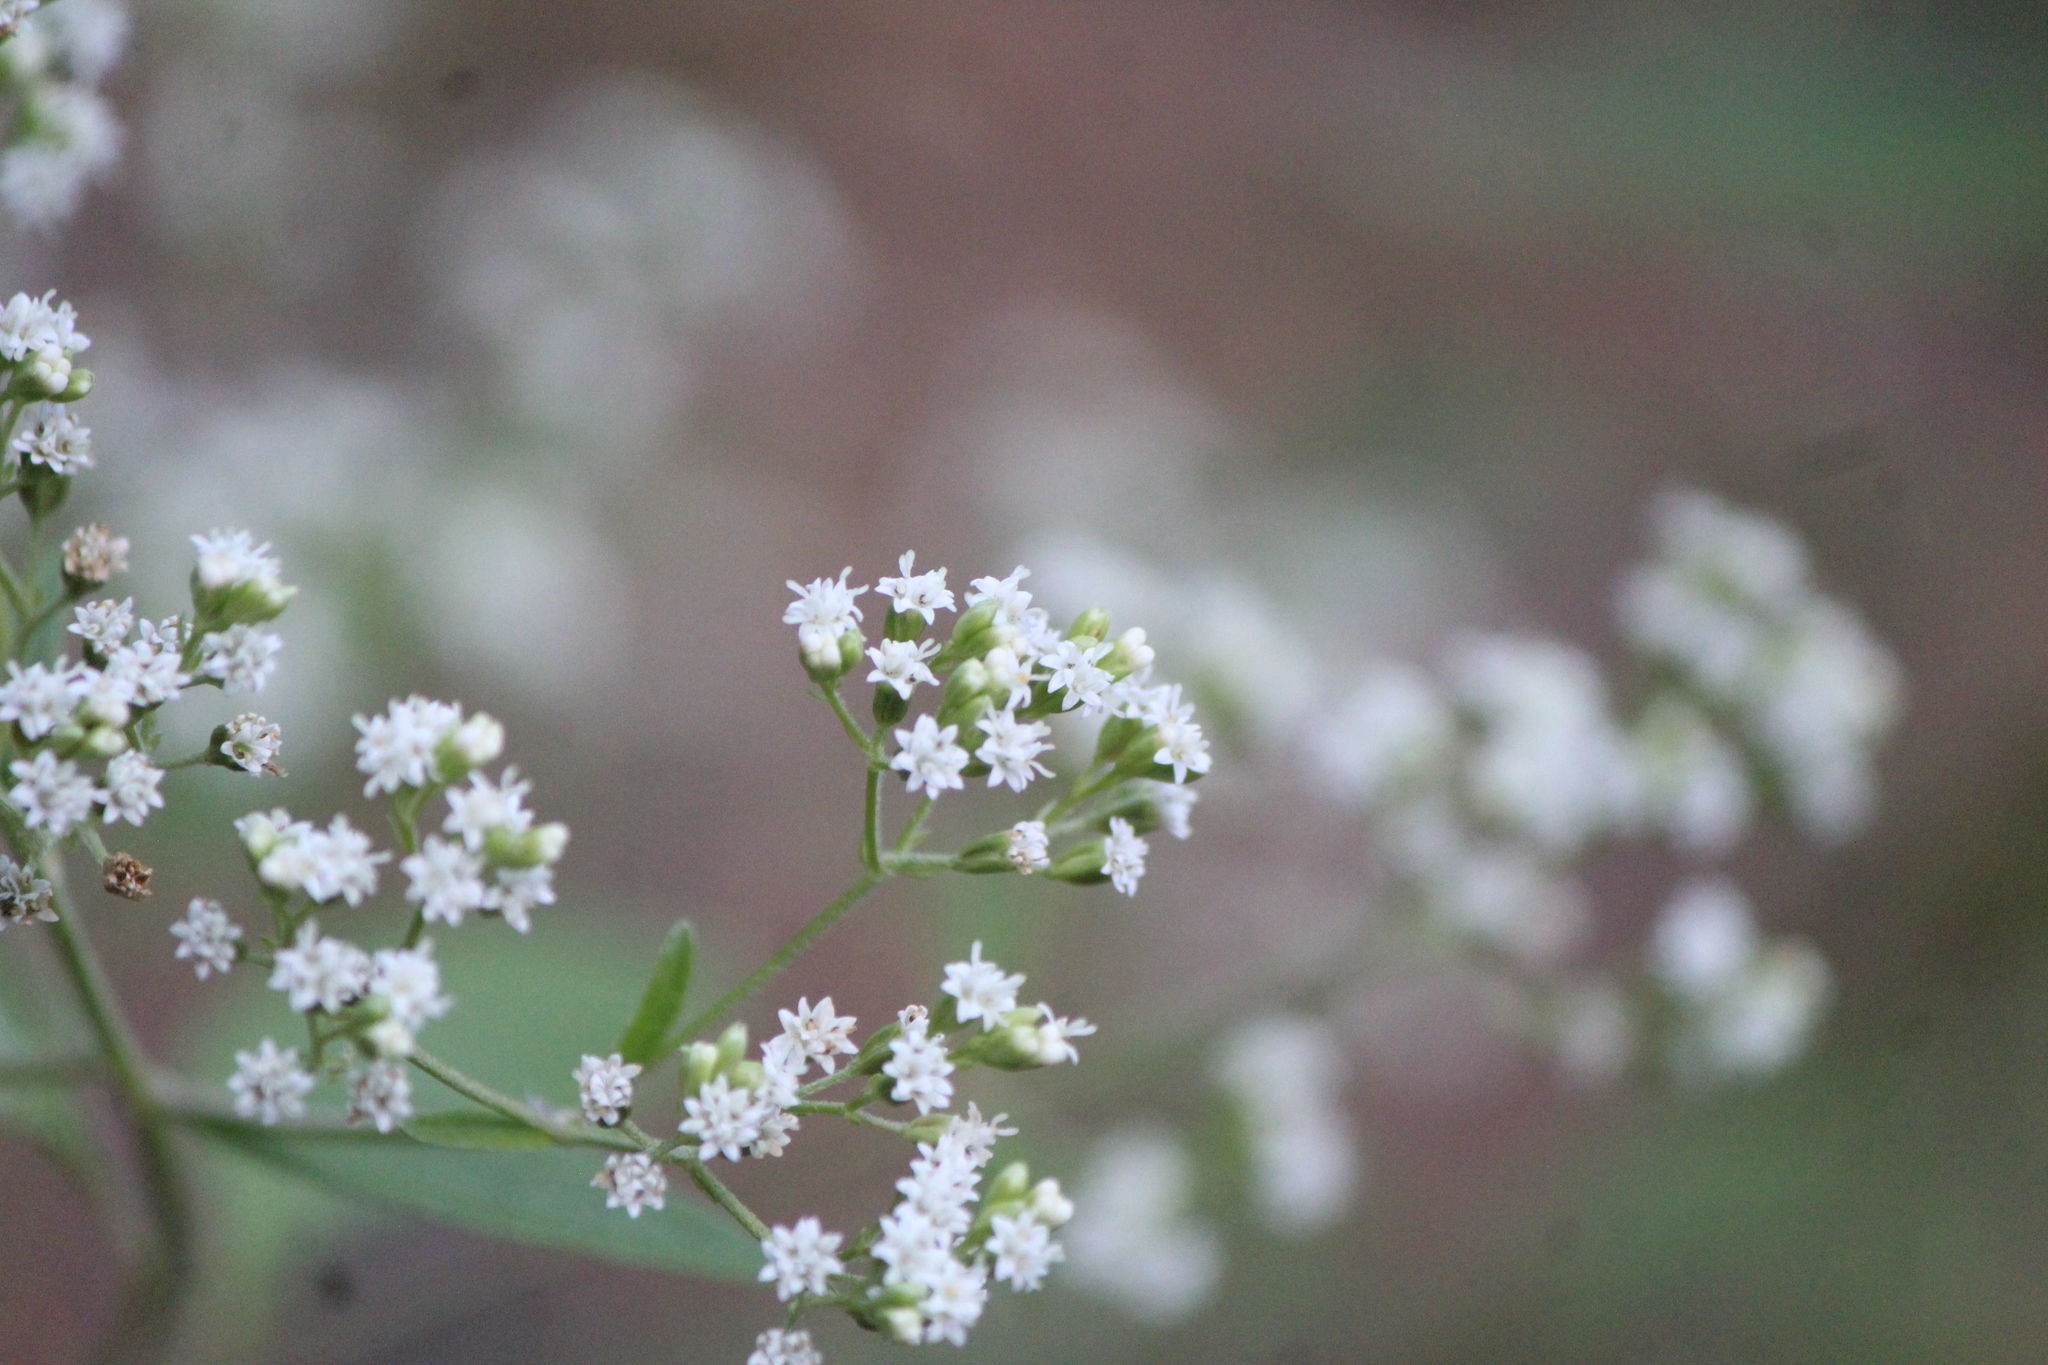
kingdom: Plantae
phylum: Tracheophyta
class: Magnoliopsida
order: Asterales
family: Asteraceae
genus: Piqueria
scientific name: Piqueria trinervia
